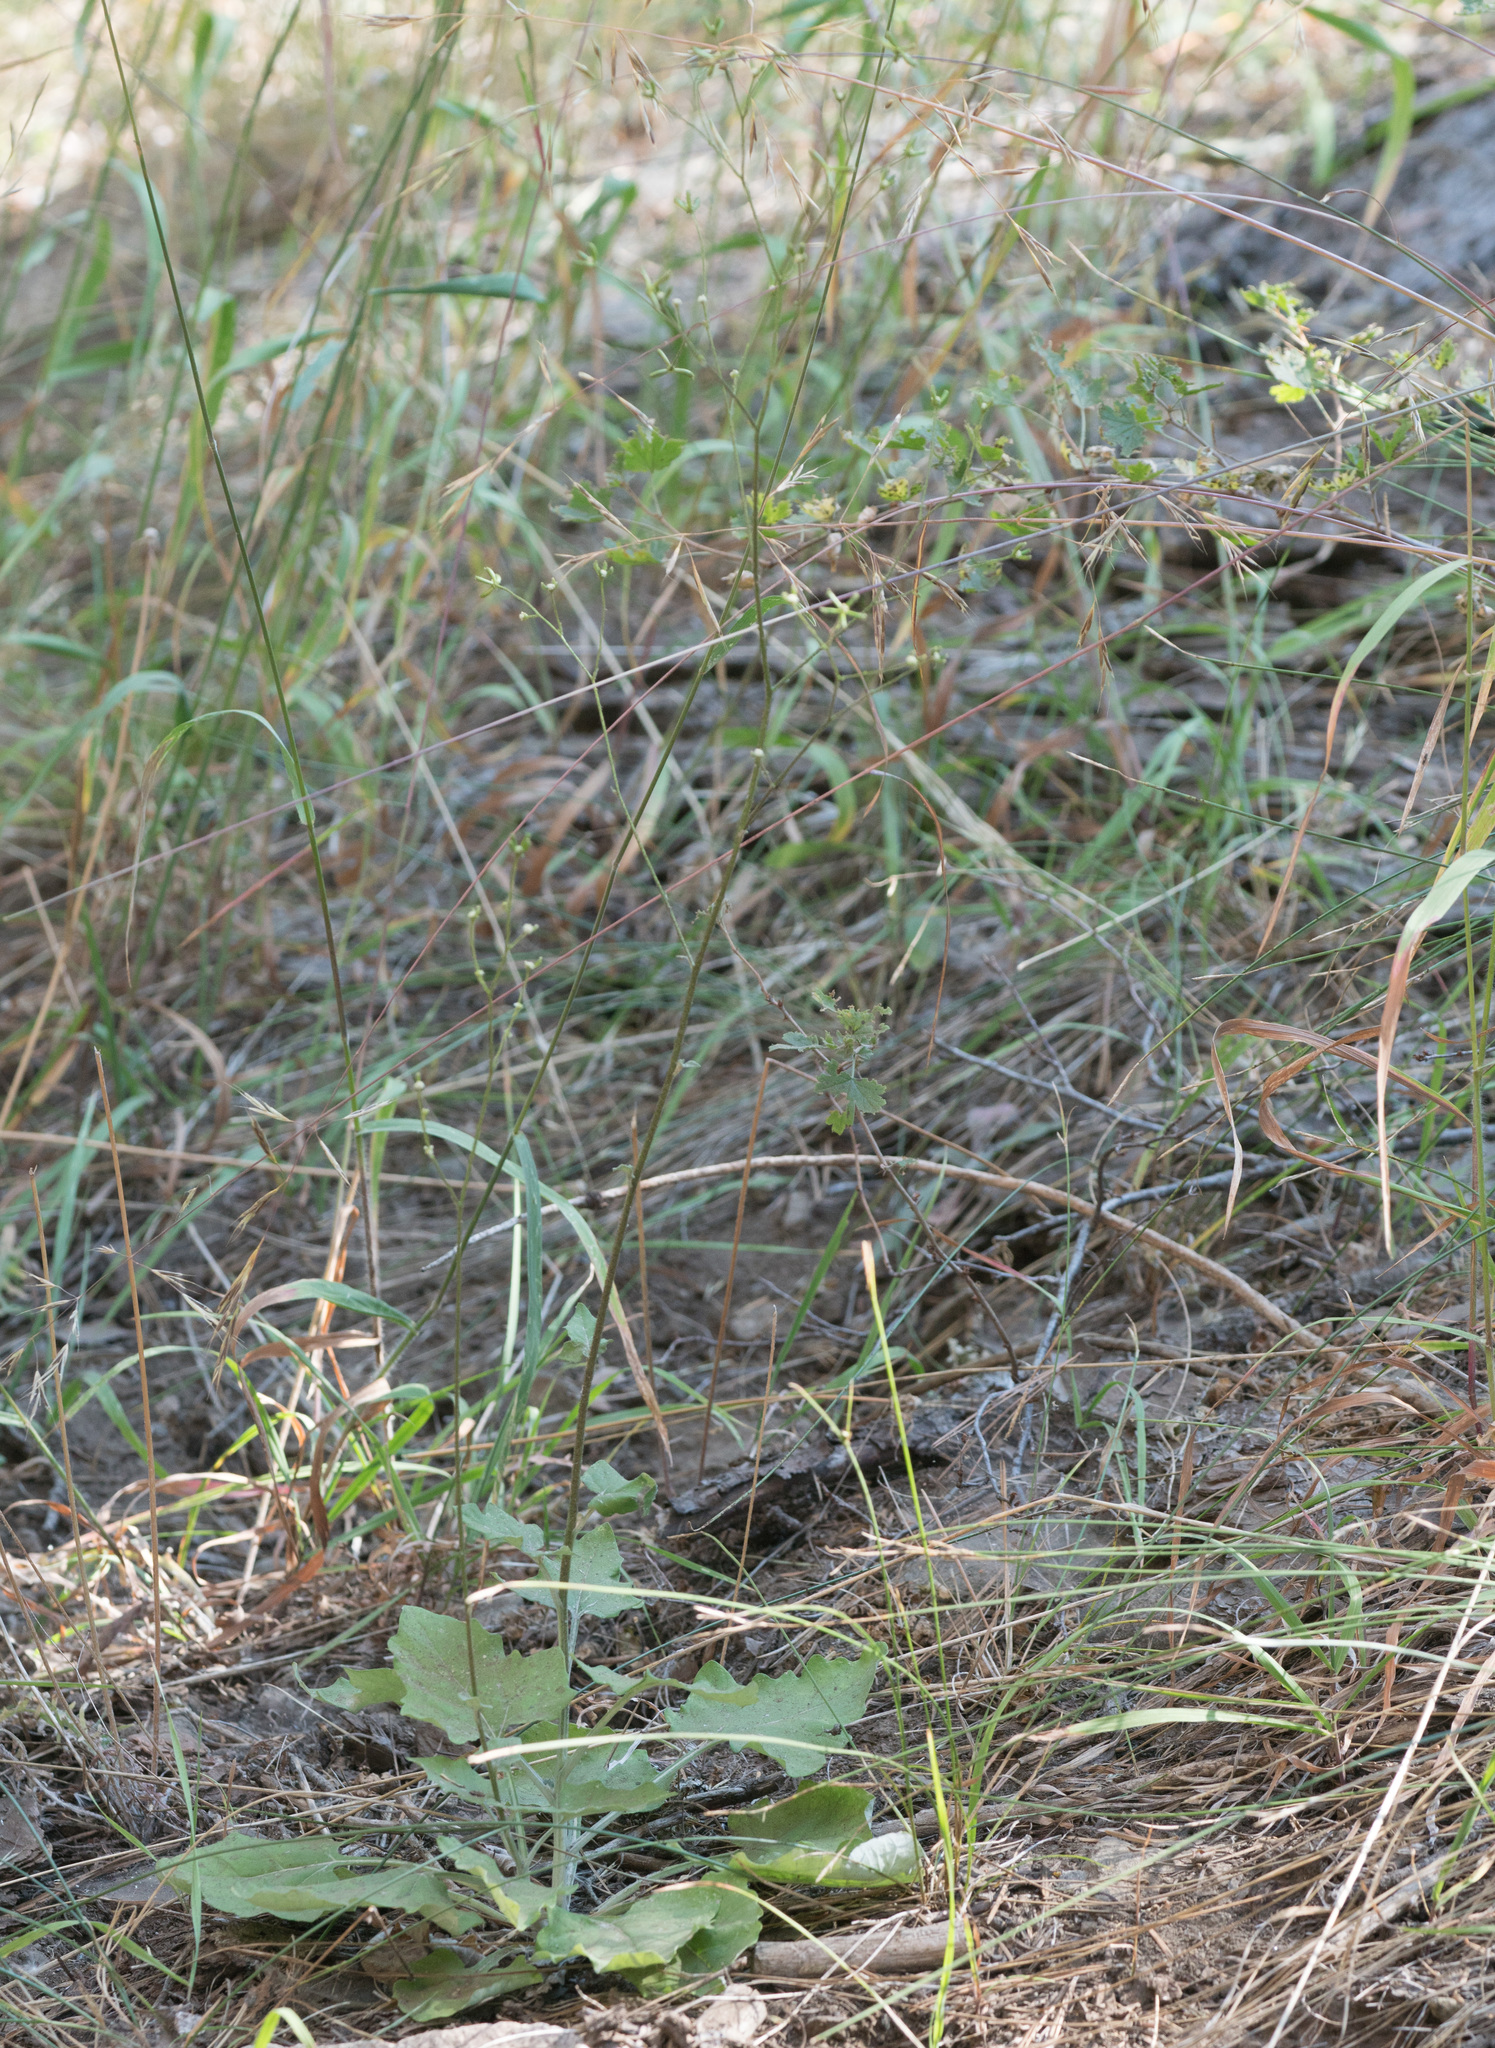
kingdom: Plantae
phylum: Tracheophyta
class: Magnoliopsida
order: Asterales
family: Asteraceae
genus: Adenocaulon
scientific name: Adenocaulon bicolor
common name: Trailplant
